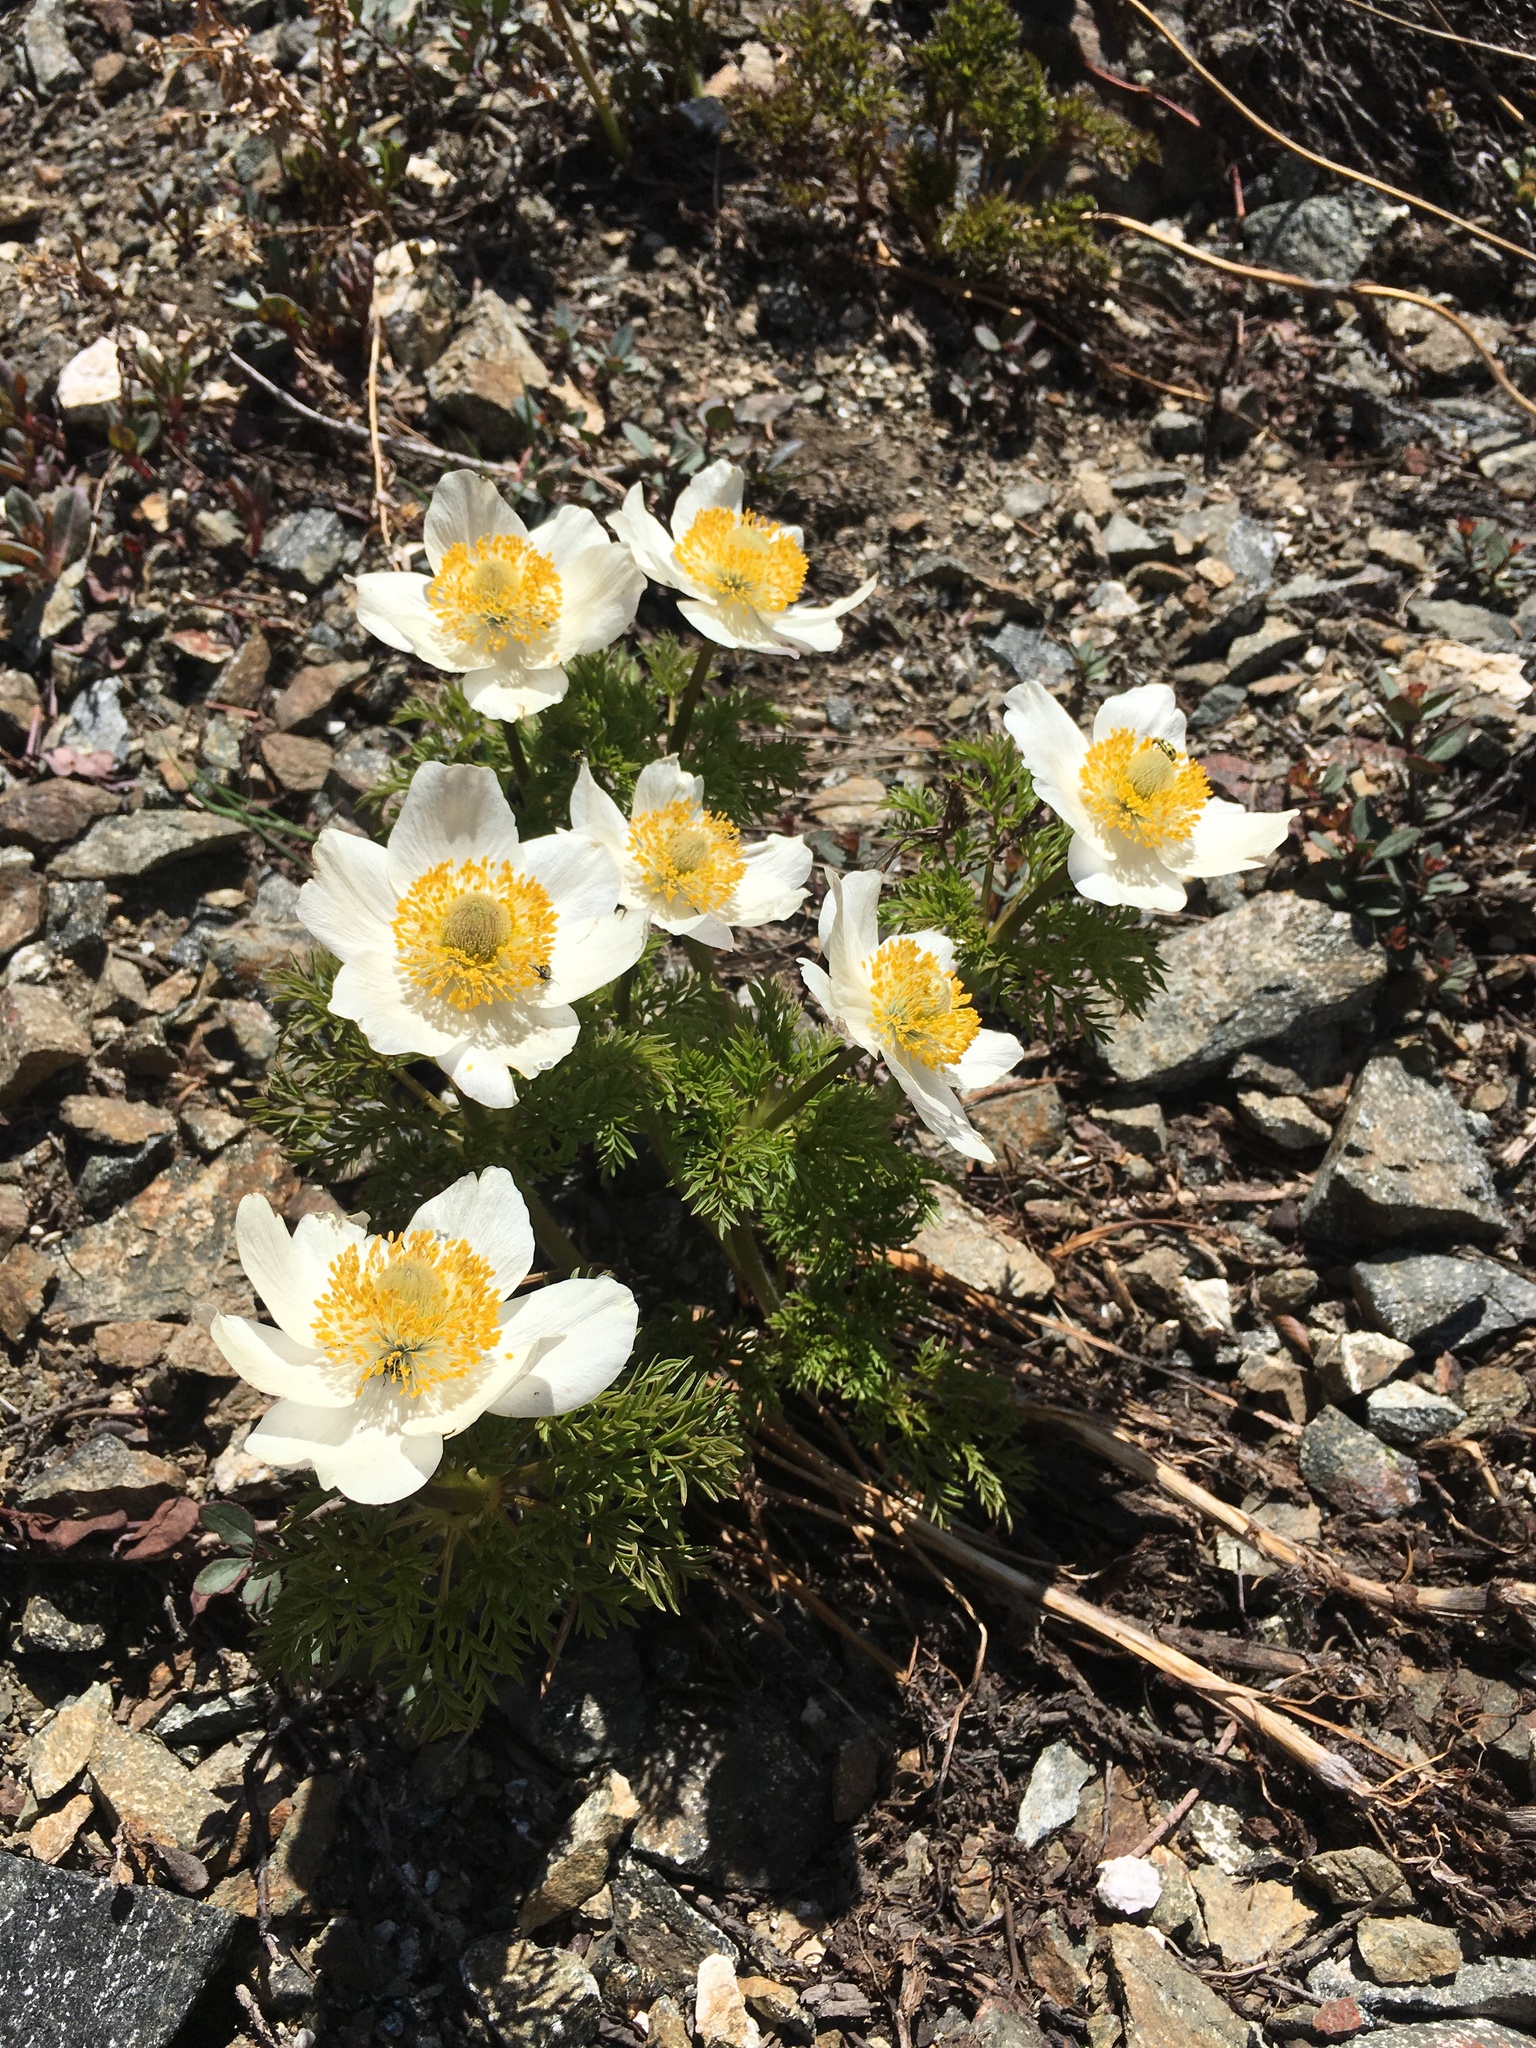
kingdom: Plantae
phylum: Tracheophyta
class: Magnoliopsida
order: Ranunculales
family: Ranunculaceae
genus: Pulsatilla
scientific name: Pulsatilla occidentalis
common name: Mountain pasqueflower
